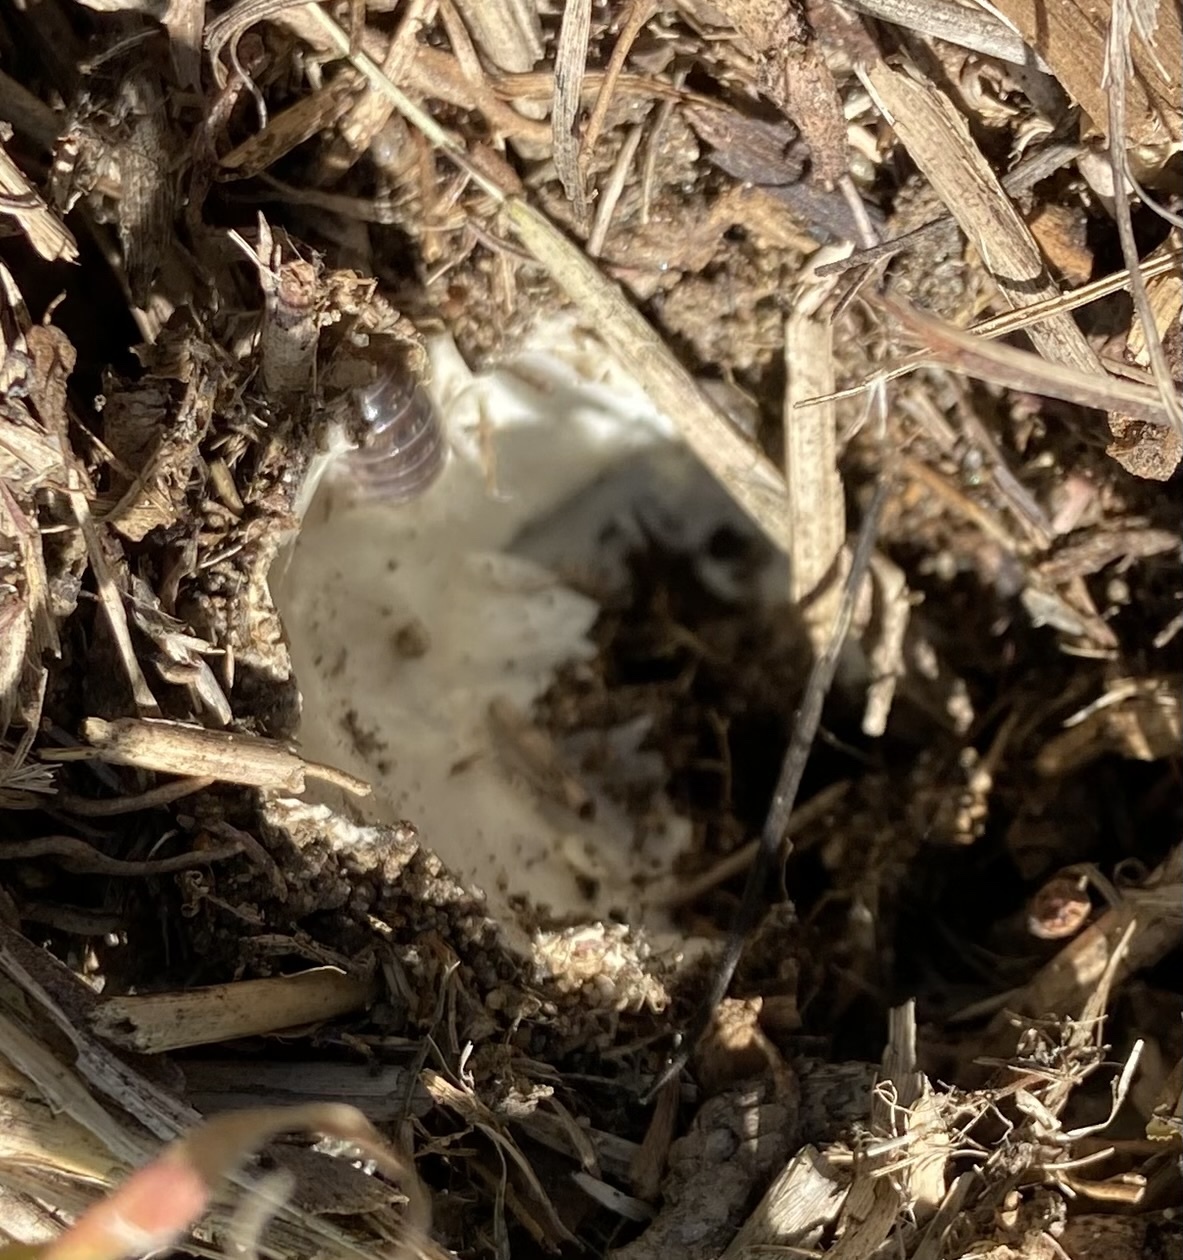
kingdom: Fungi
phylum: Basidiomycota
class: Agaricomycetes
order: Agaricales
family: Pluteaceae
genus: Volvopluteus
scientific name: Volvopluteus gloiocephalus
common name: Stubble rosegill
